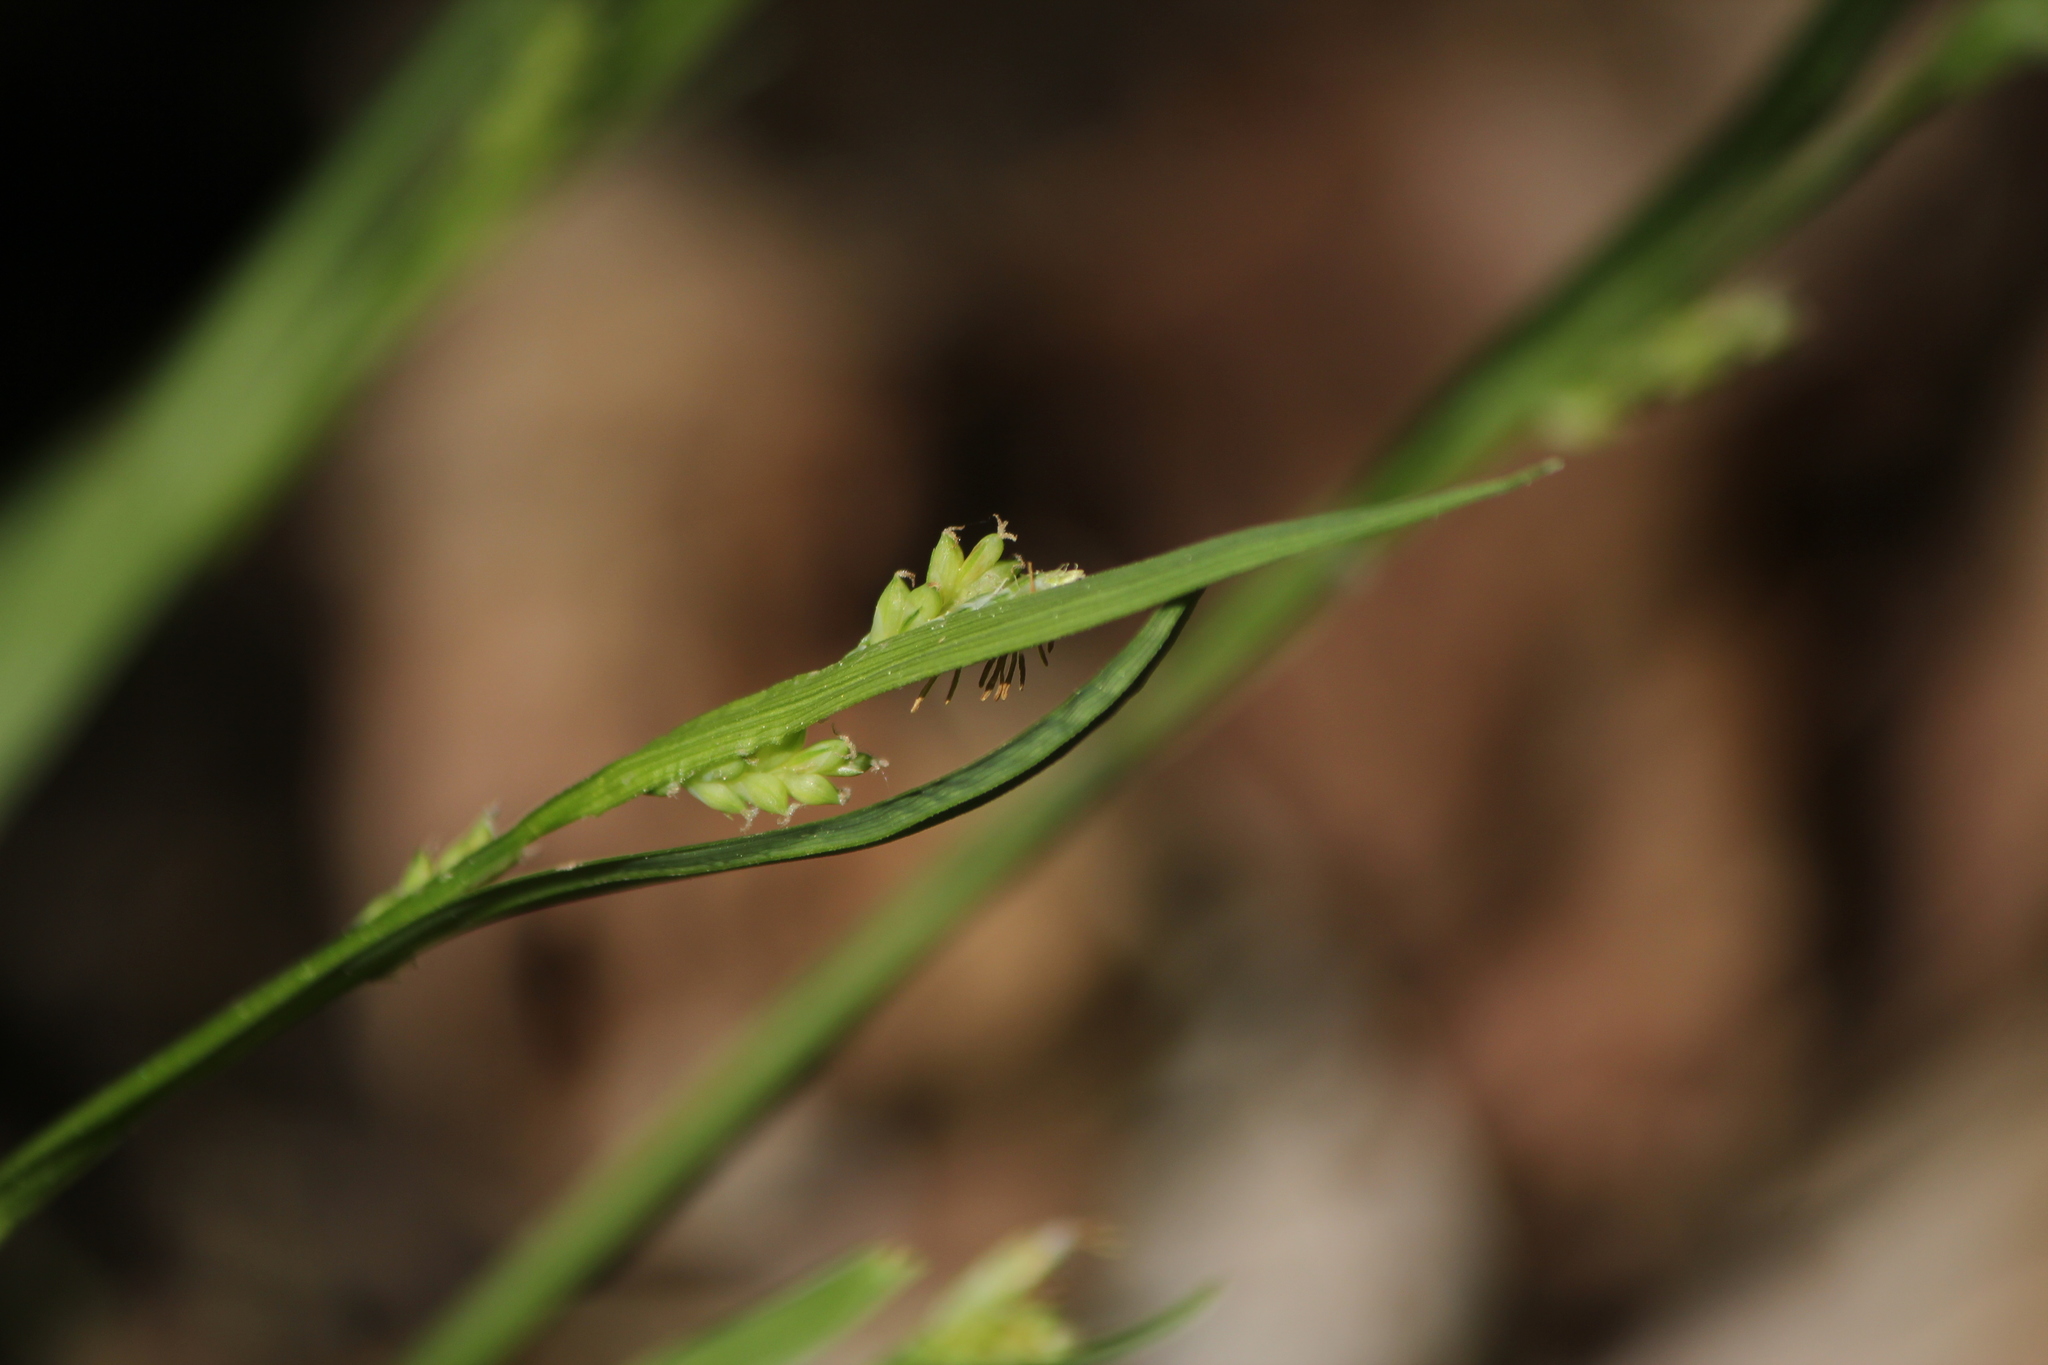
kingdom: Plantae
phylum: Tracheophyta
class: Liliopsida
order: Poales
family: Cyperaceae
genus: Carex
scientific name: Carex blanda
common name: Bland sedge
